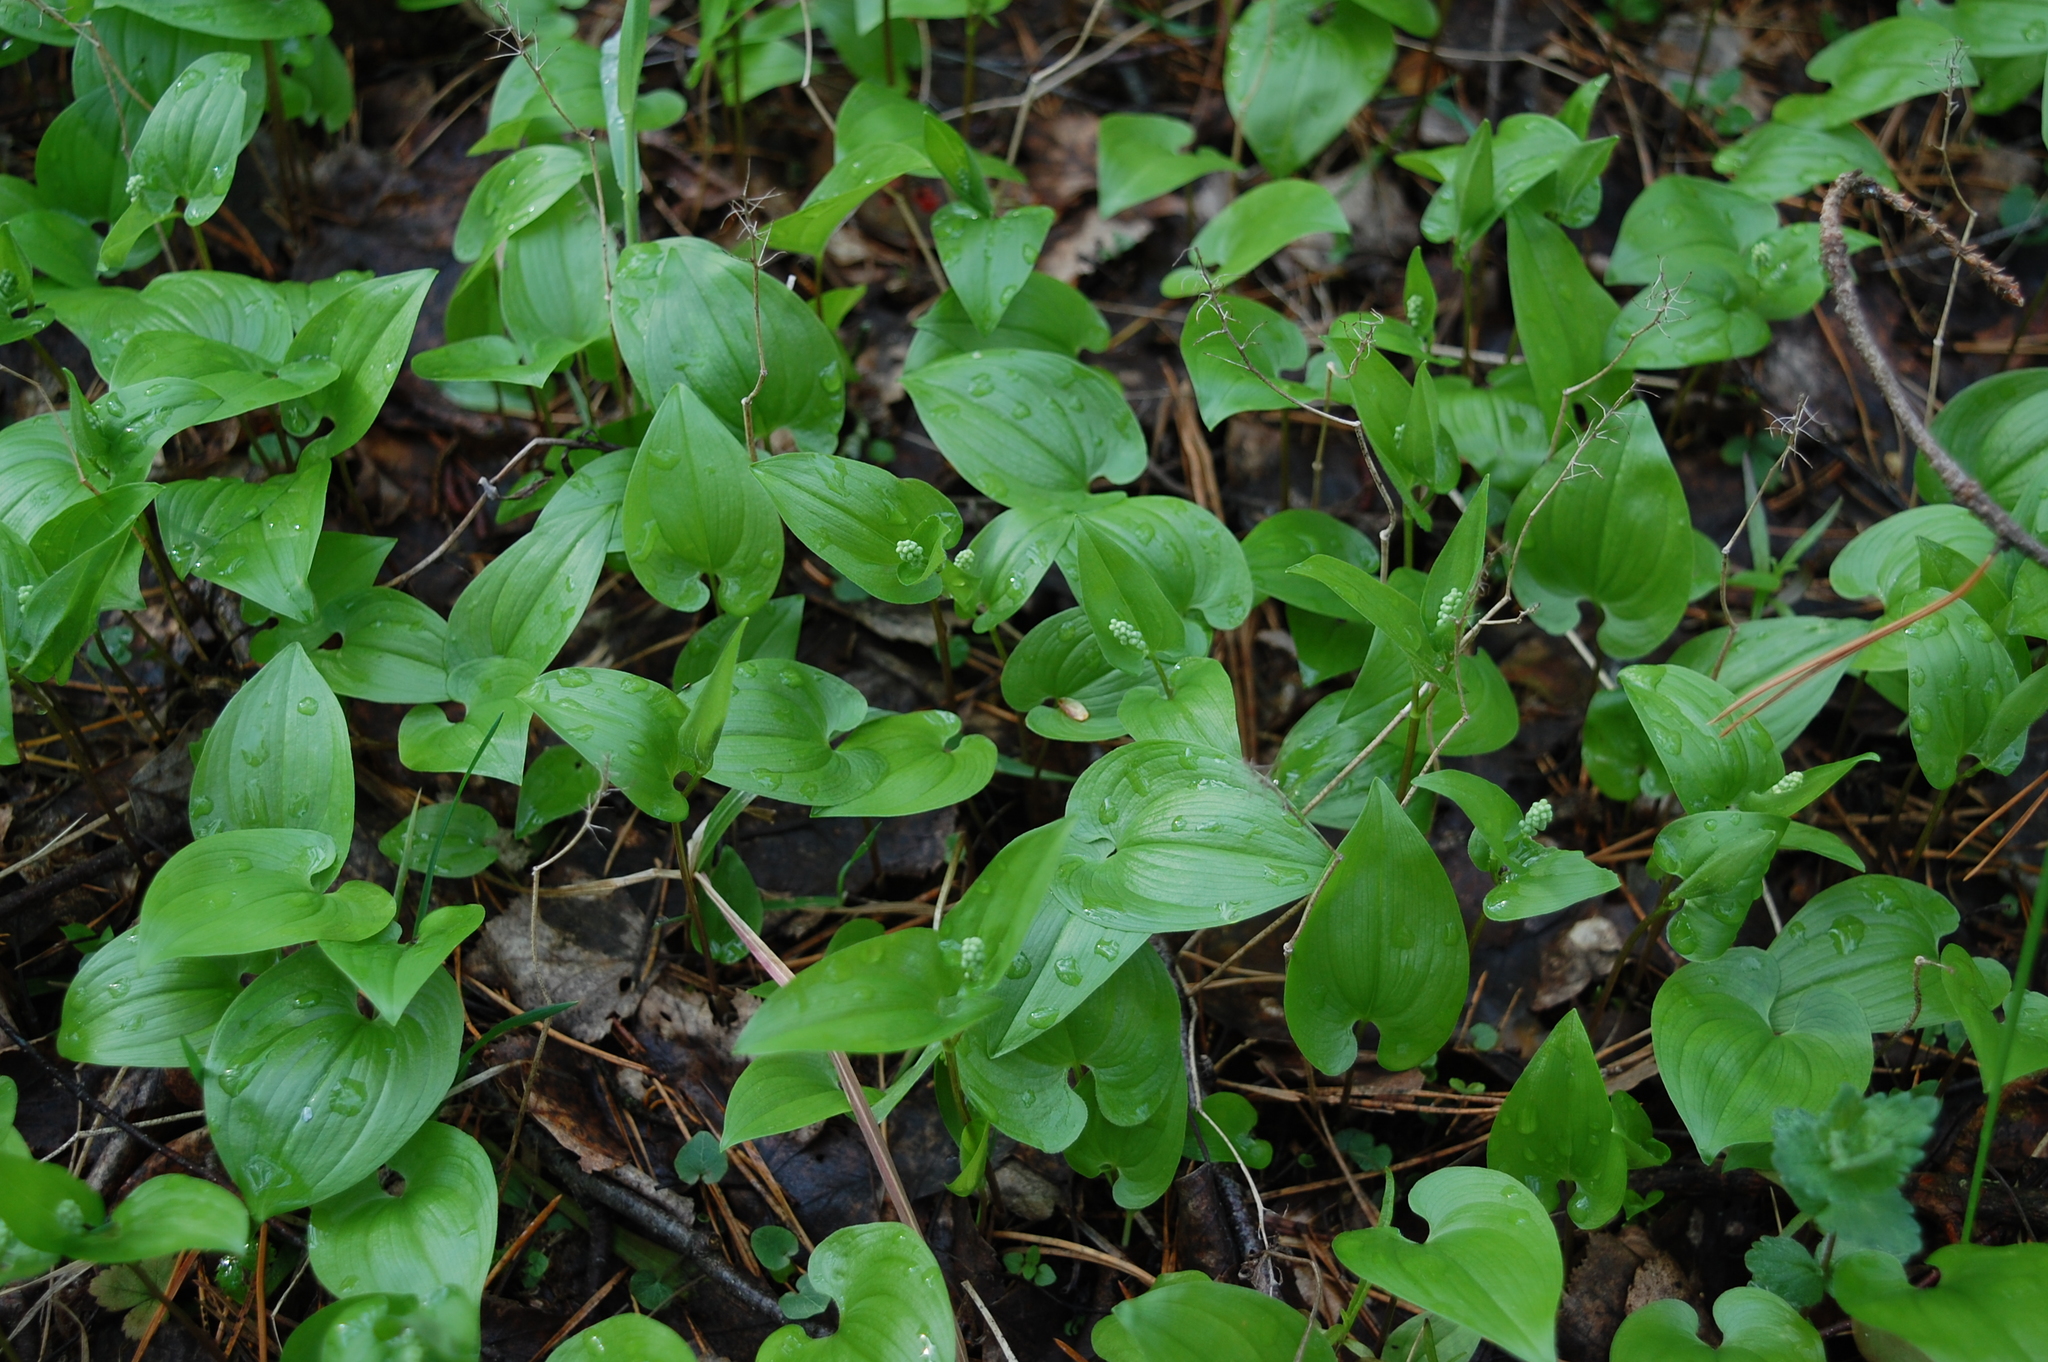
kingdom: Plantae
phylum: Tracheophyta
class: Liliopsida
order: Asparagales
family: Asparagaceae
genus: Maianthemum
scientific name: Maianthemum bifolium
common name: May lily
